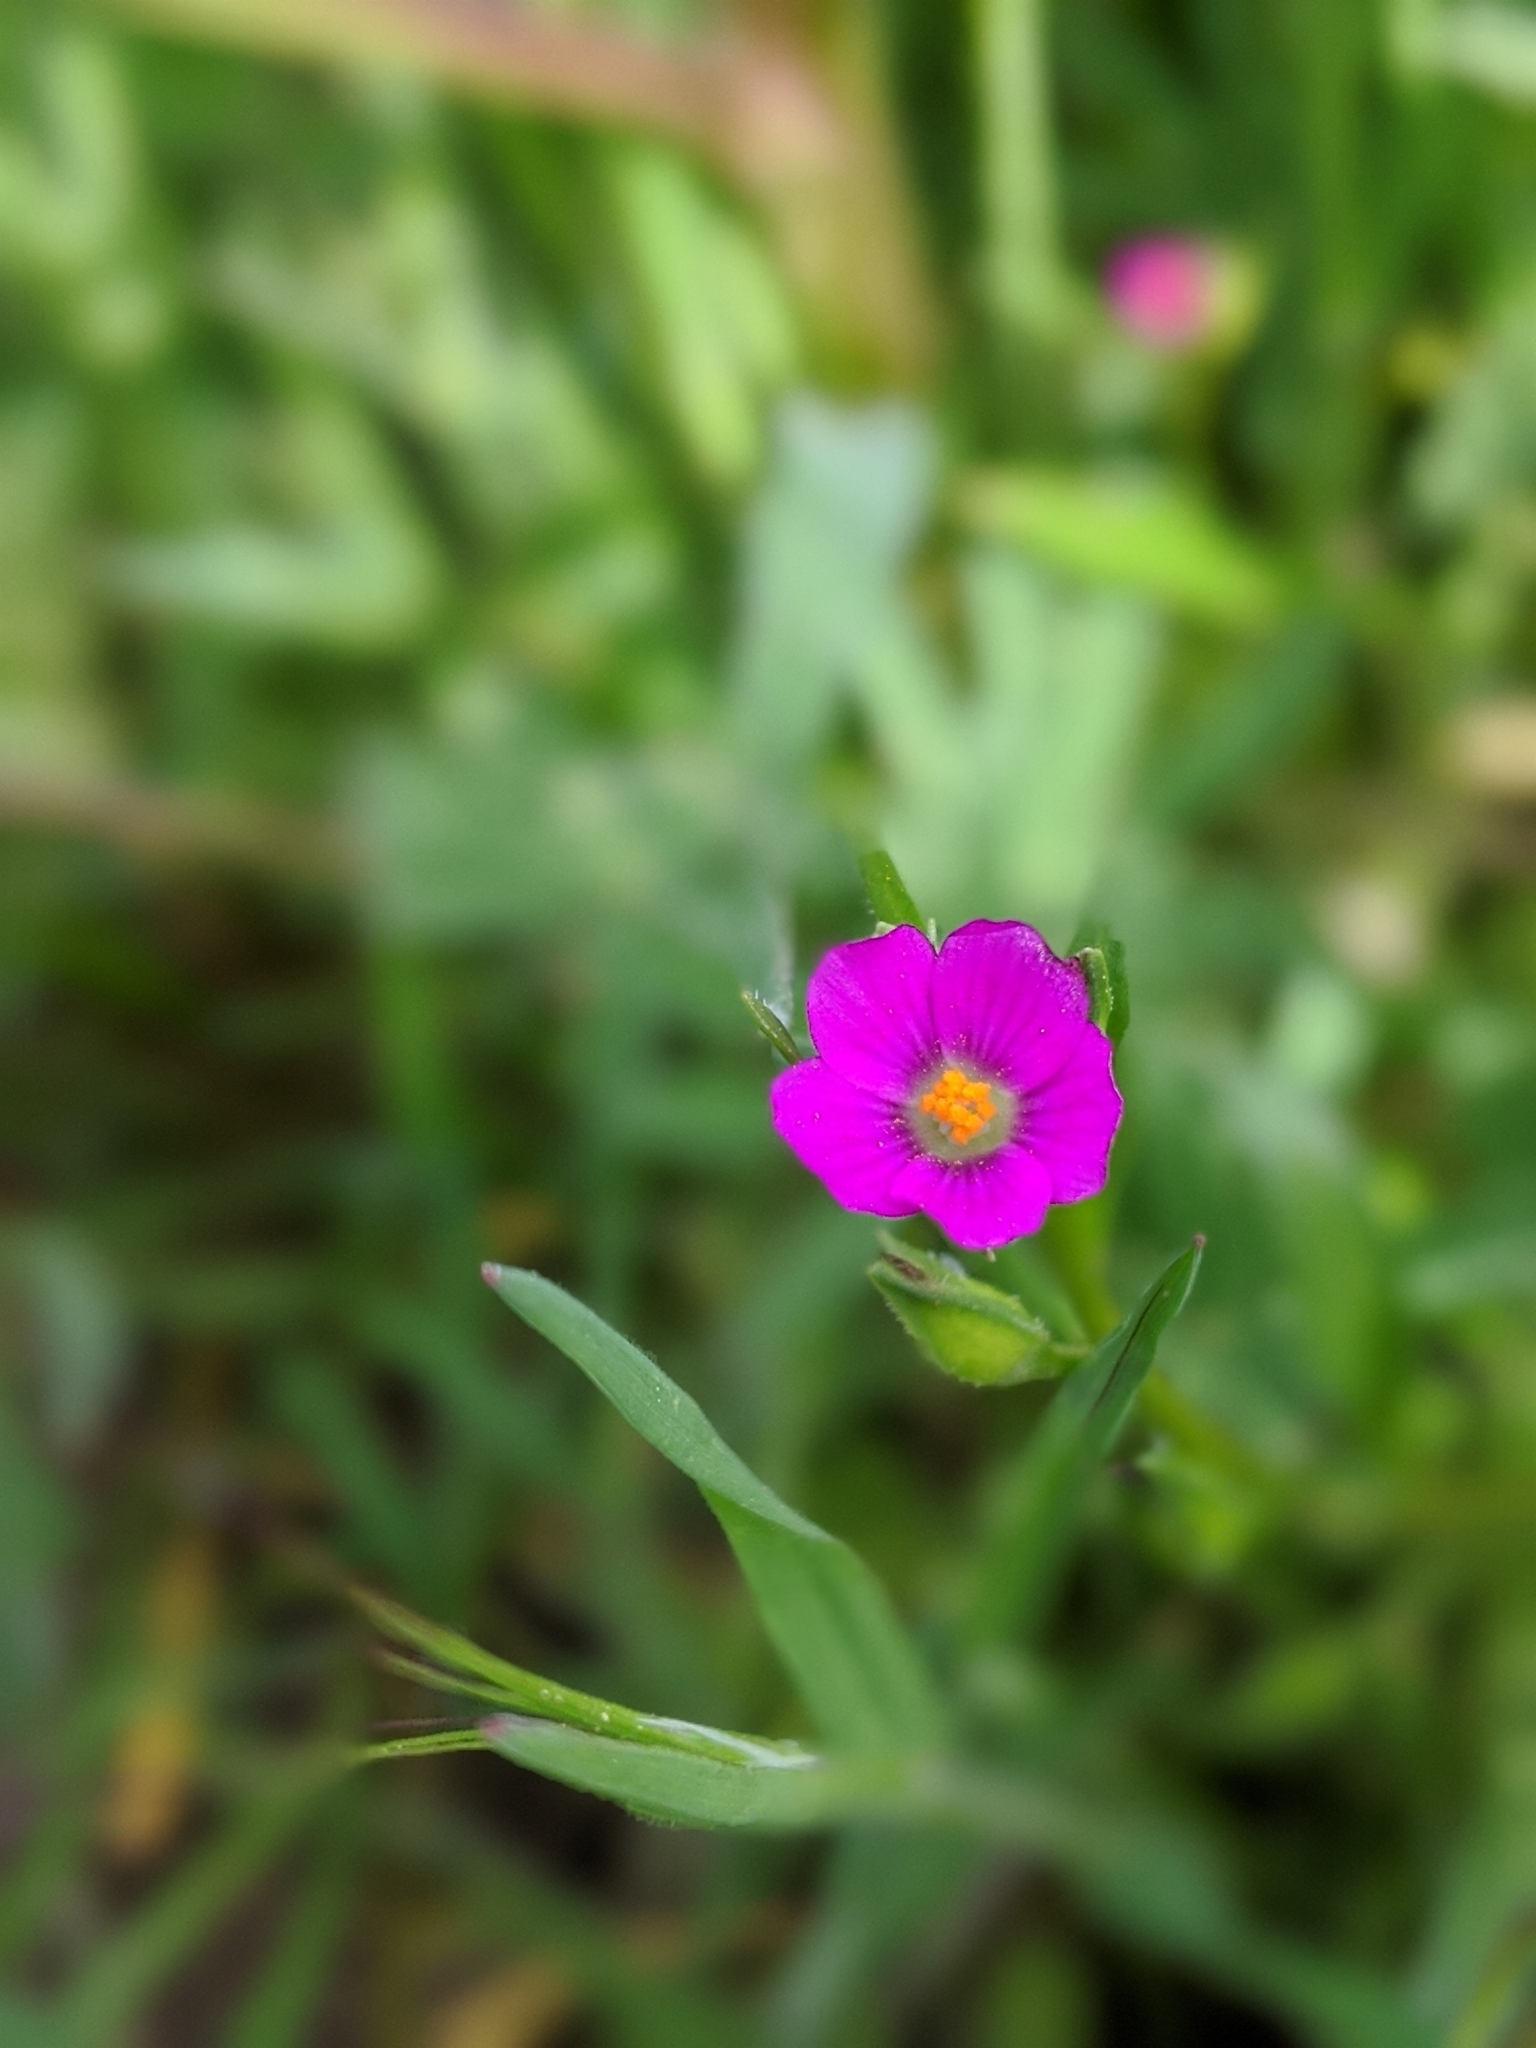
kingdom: Plantae
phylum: Tracheophyta
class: Magnoliopsida
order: Caryophyllales
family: Montiaceae
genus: Calandrinia
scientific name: Calandrinia menziesii
